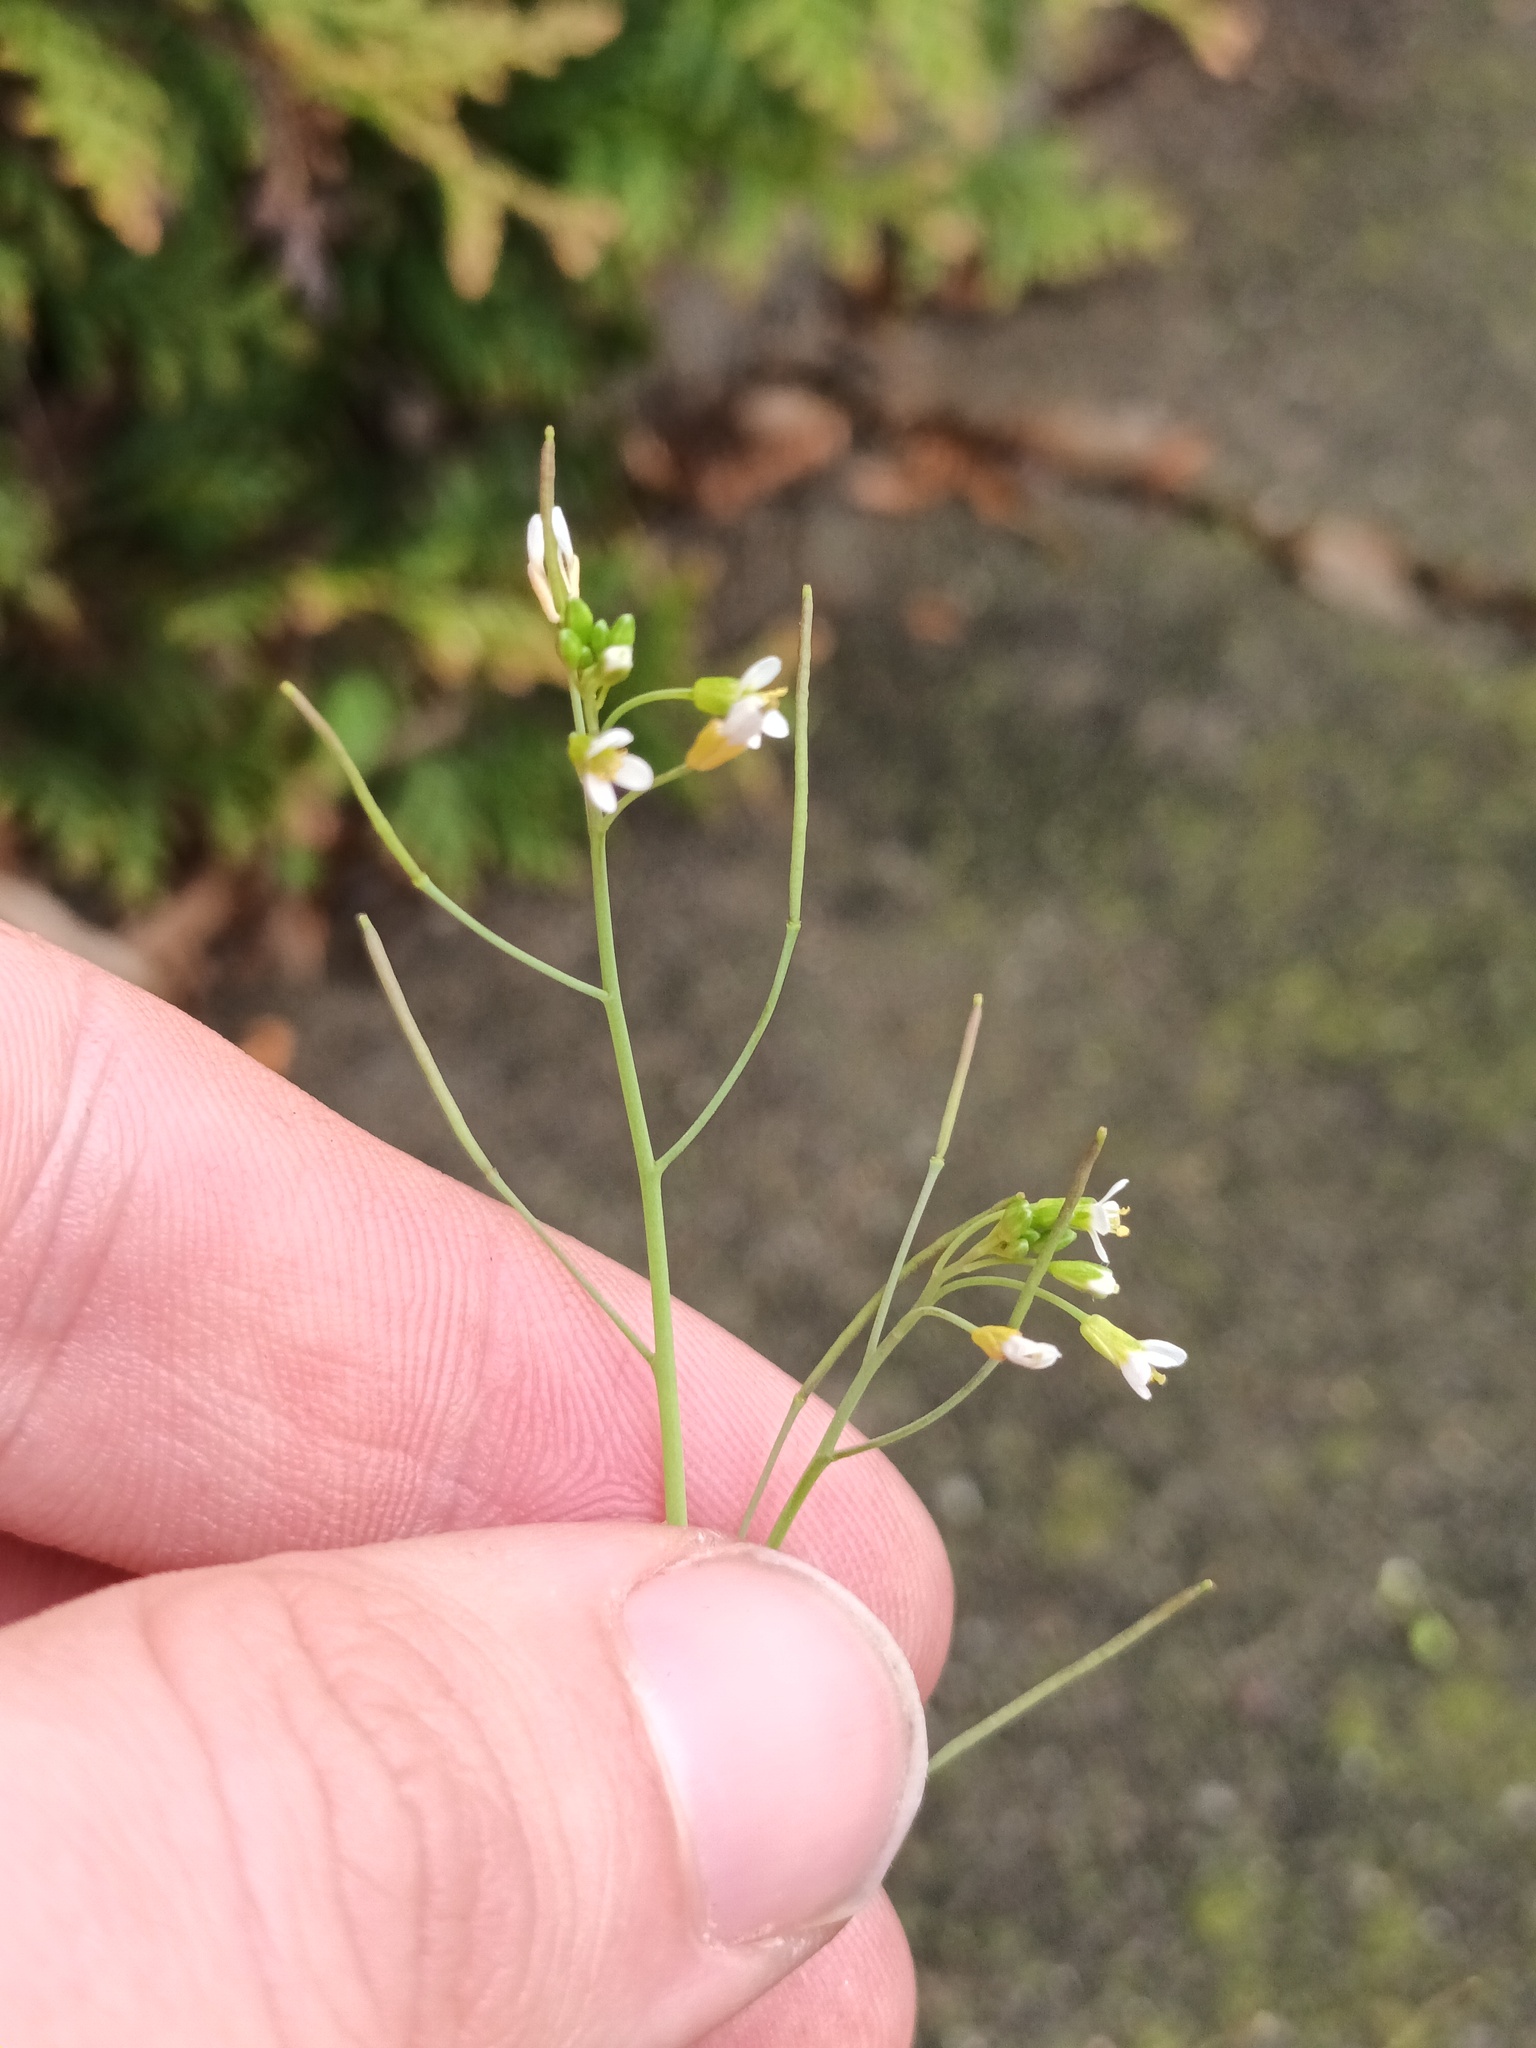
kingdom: Plantae
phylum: Tracheophyta
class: Magnoliopsida
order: Brassicales
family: Brassicaceae
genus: Arabidopsis
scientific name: Arabidopsis thaliana
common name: Thale cress
